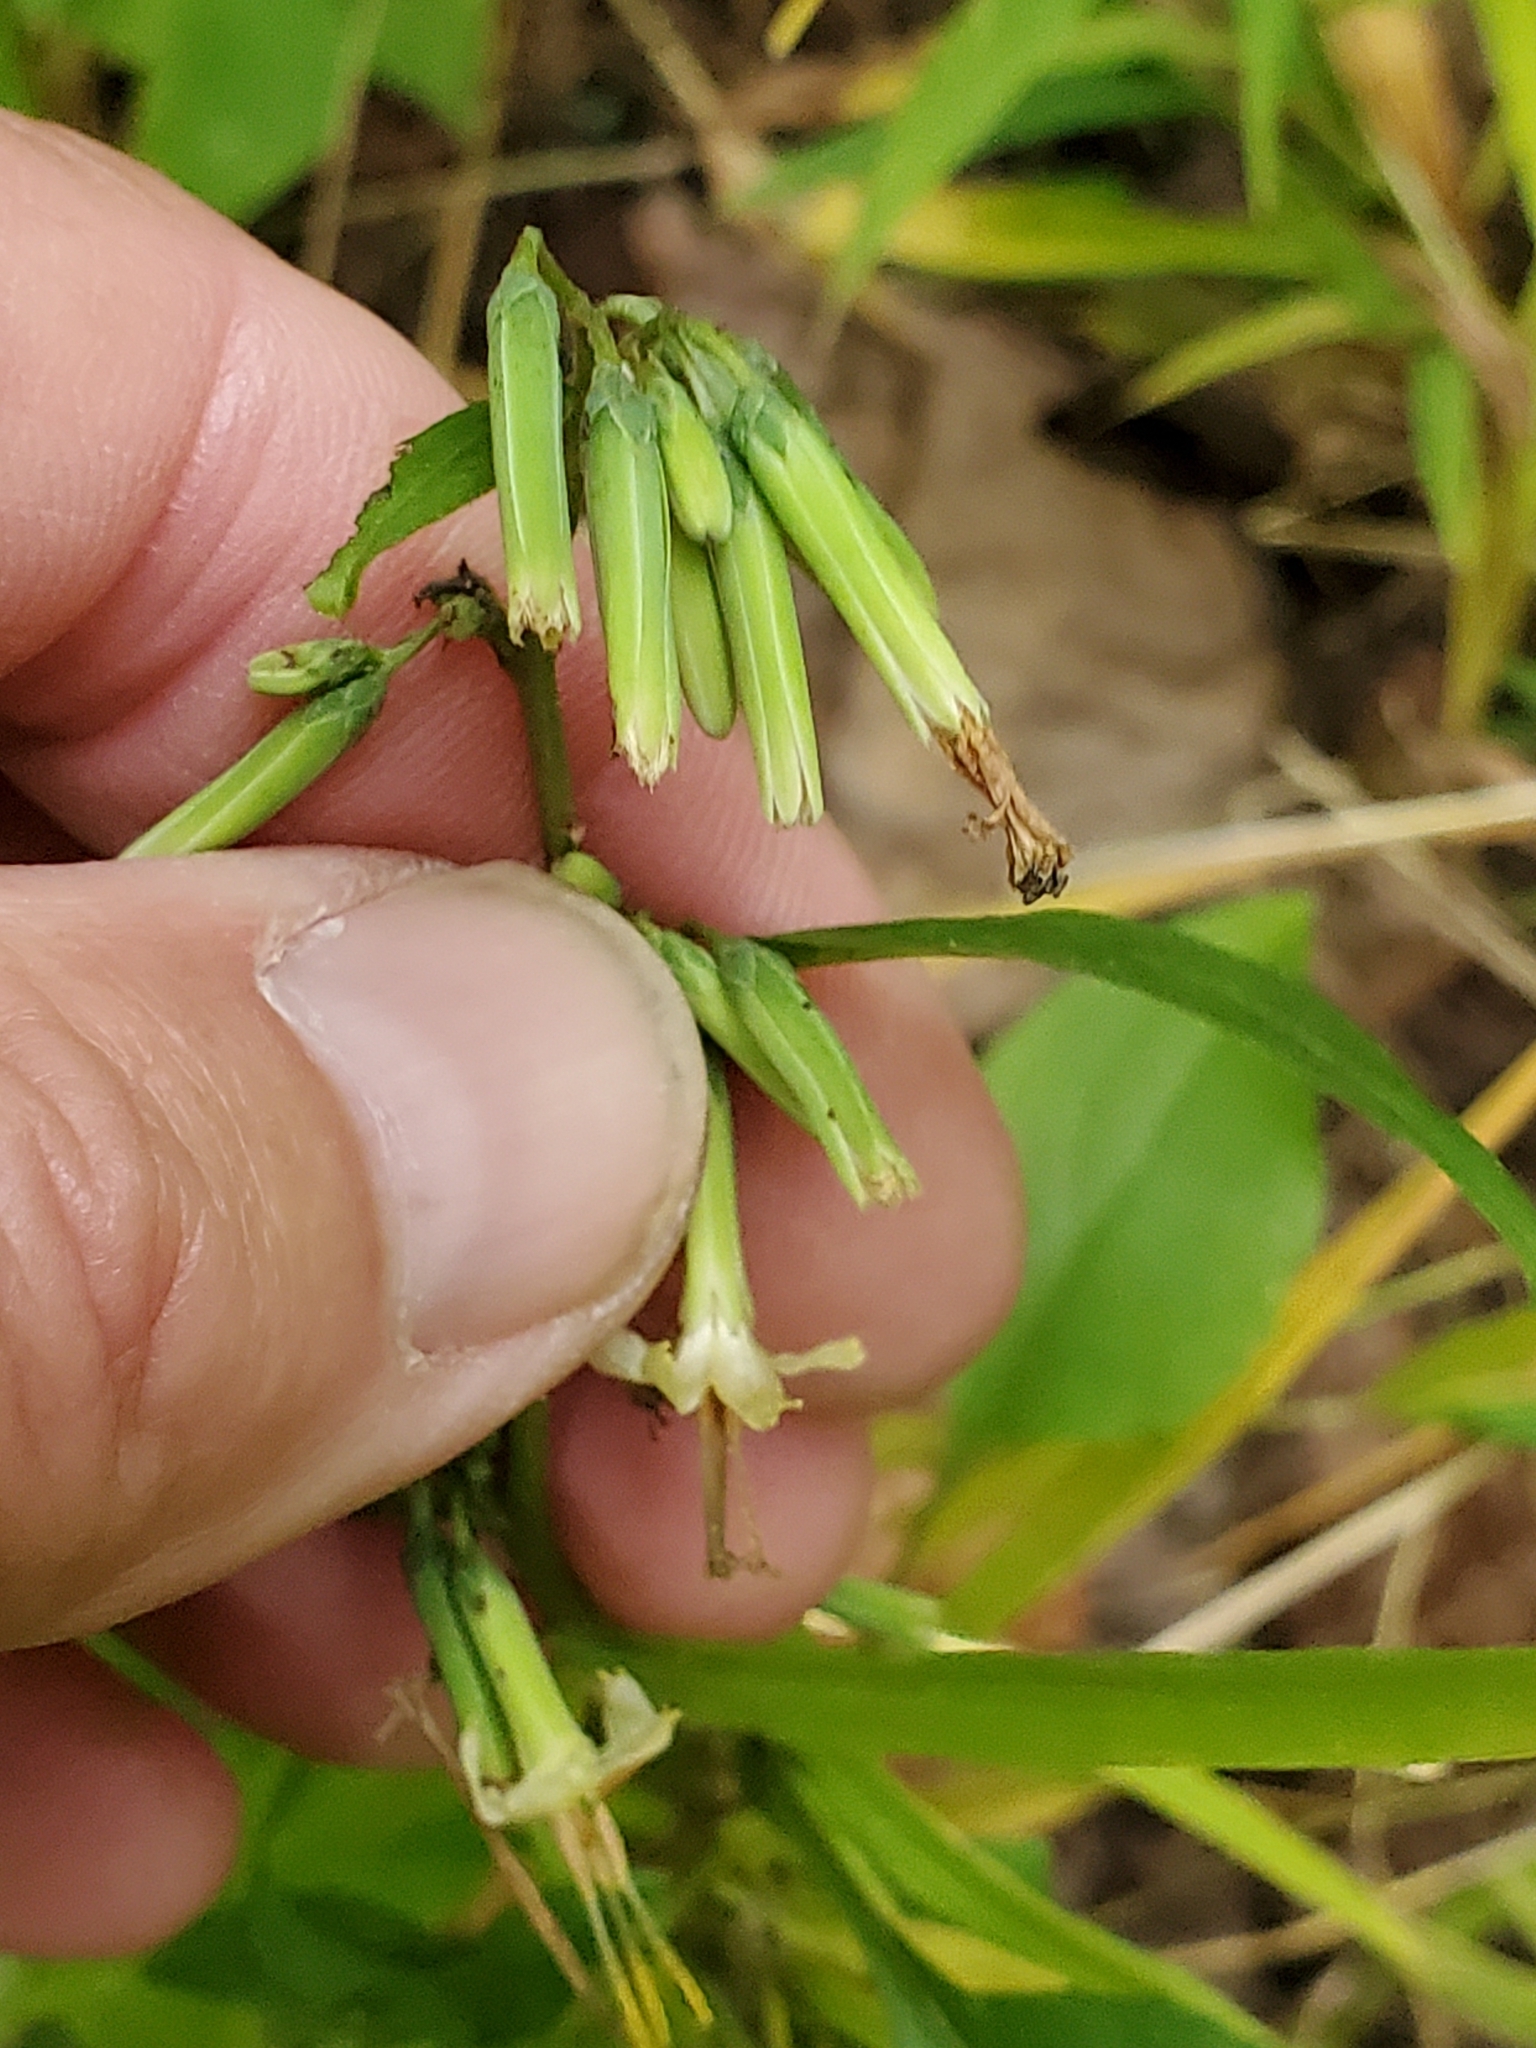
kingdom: Plantae
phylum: Tracheophyta
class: Magnoliopsida
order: Asterales
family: Asteraceae
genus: Nabalus
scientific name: Nabalus altissima
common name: Tall rattlesnakeroot
